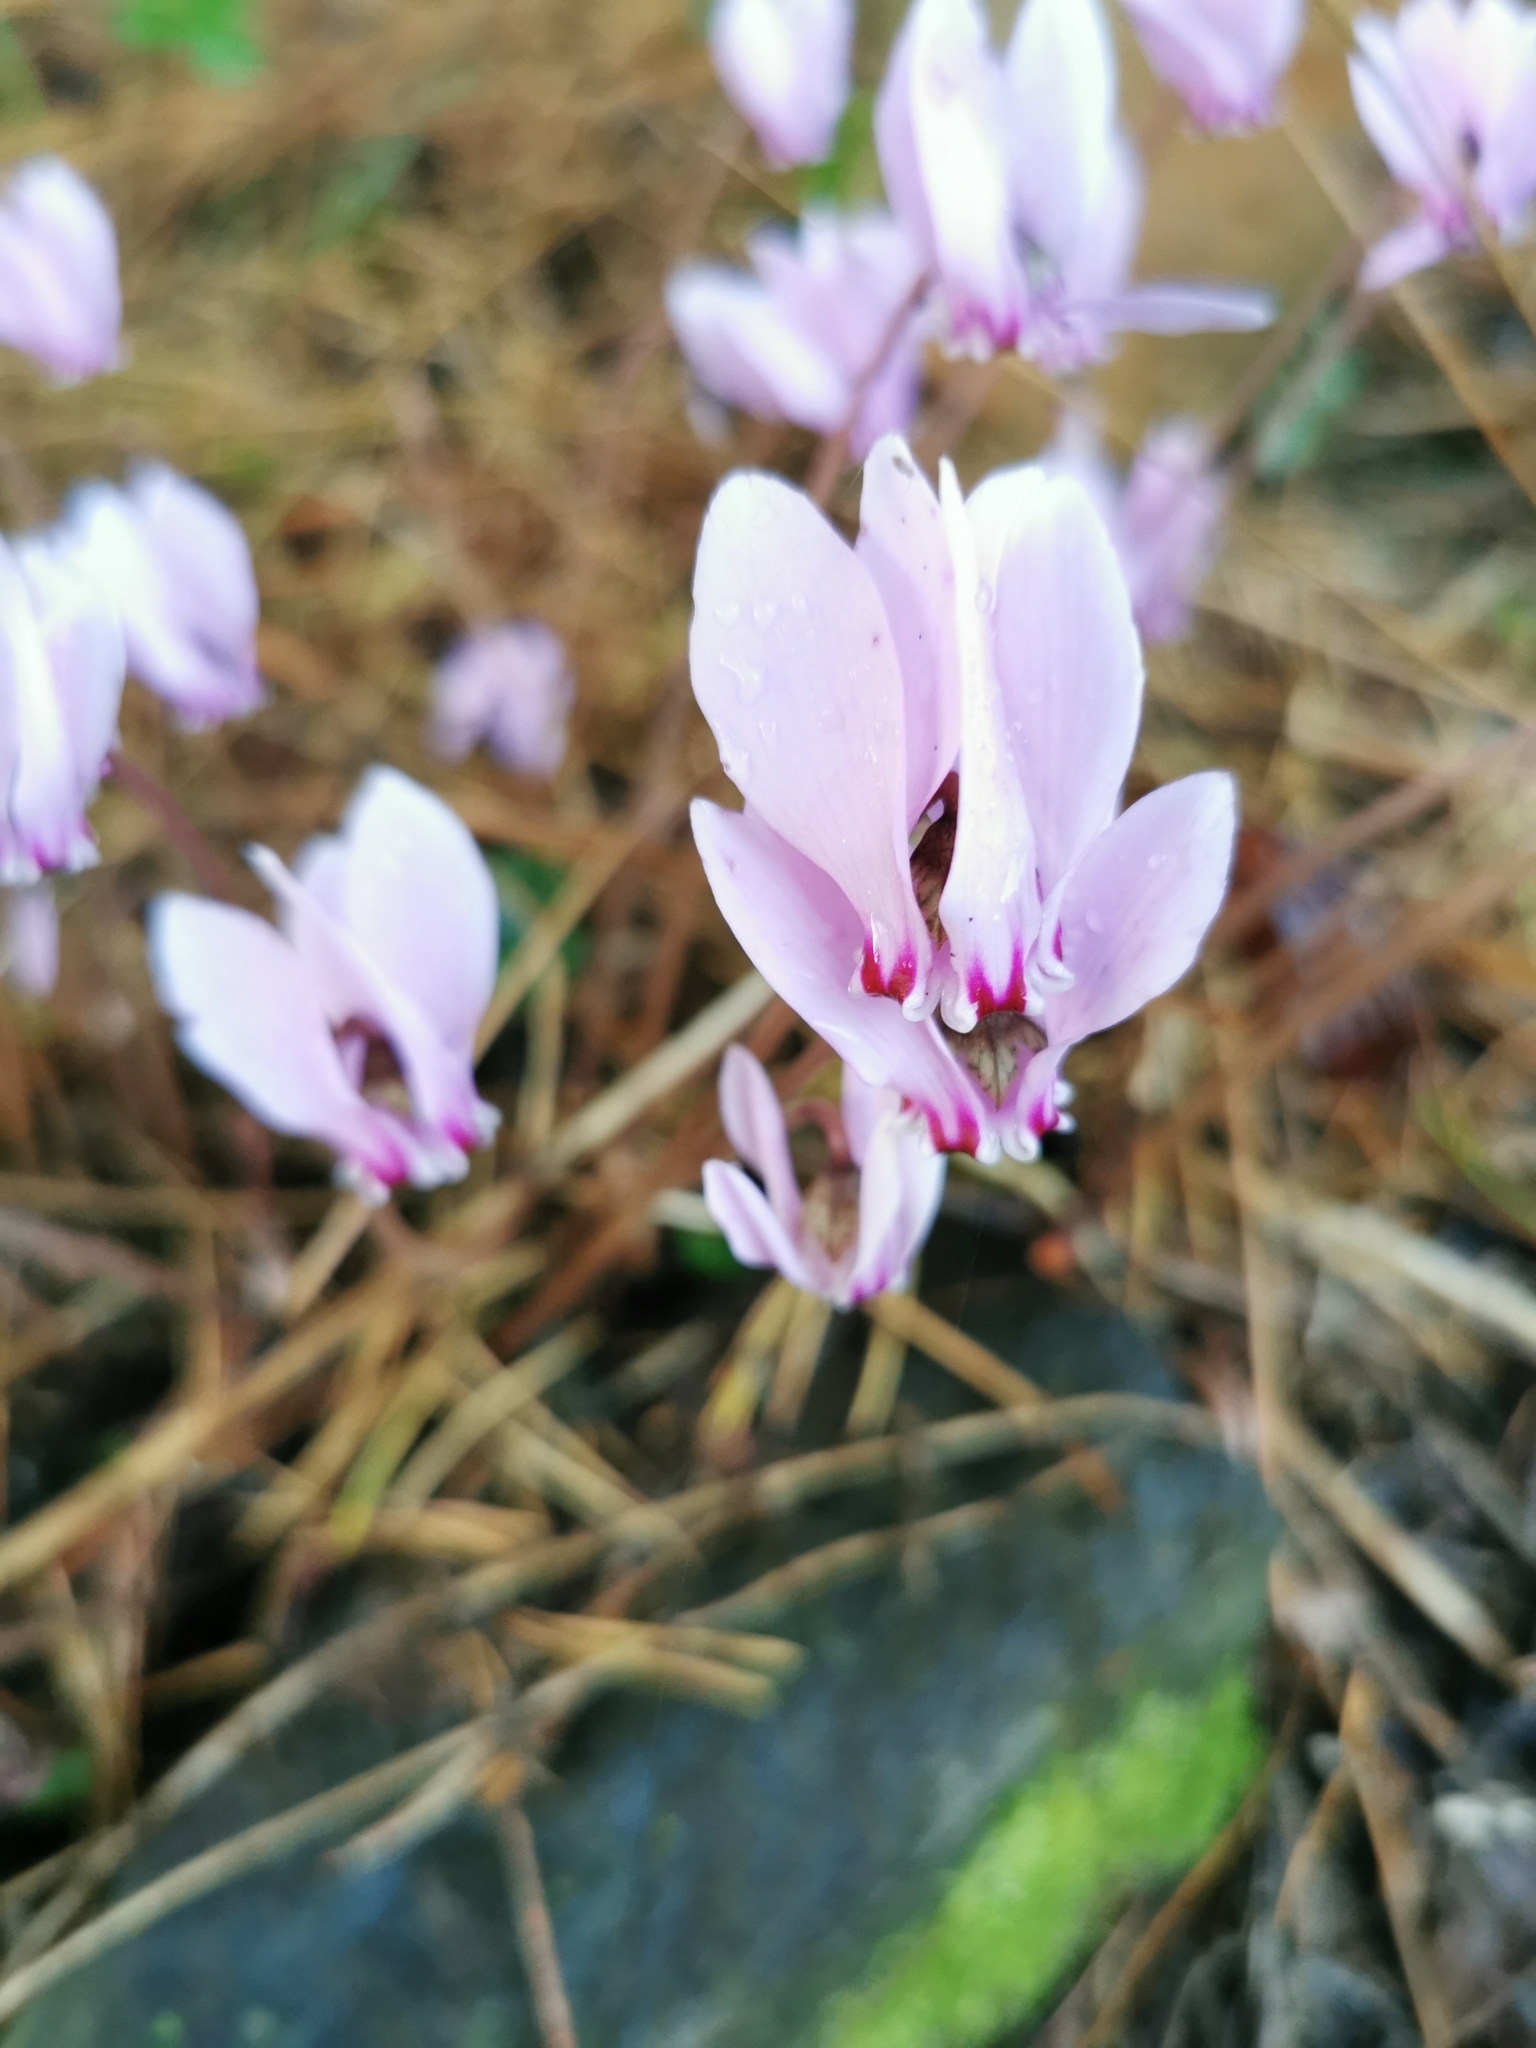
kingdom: Plantae
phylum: Tracheophyta
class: Magnoliopsida
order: Ericales
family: Primulaceae
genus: Cyclamen
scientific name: Cyclamen hederifolium
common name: Sowbread
